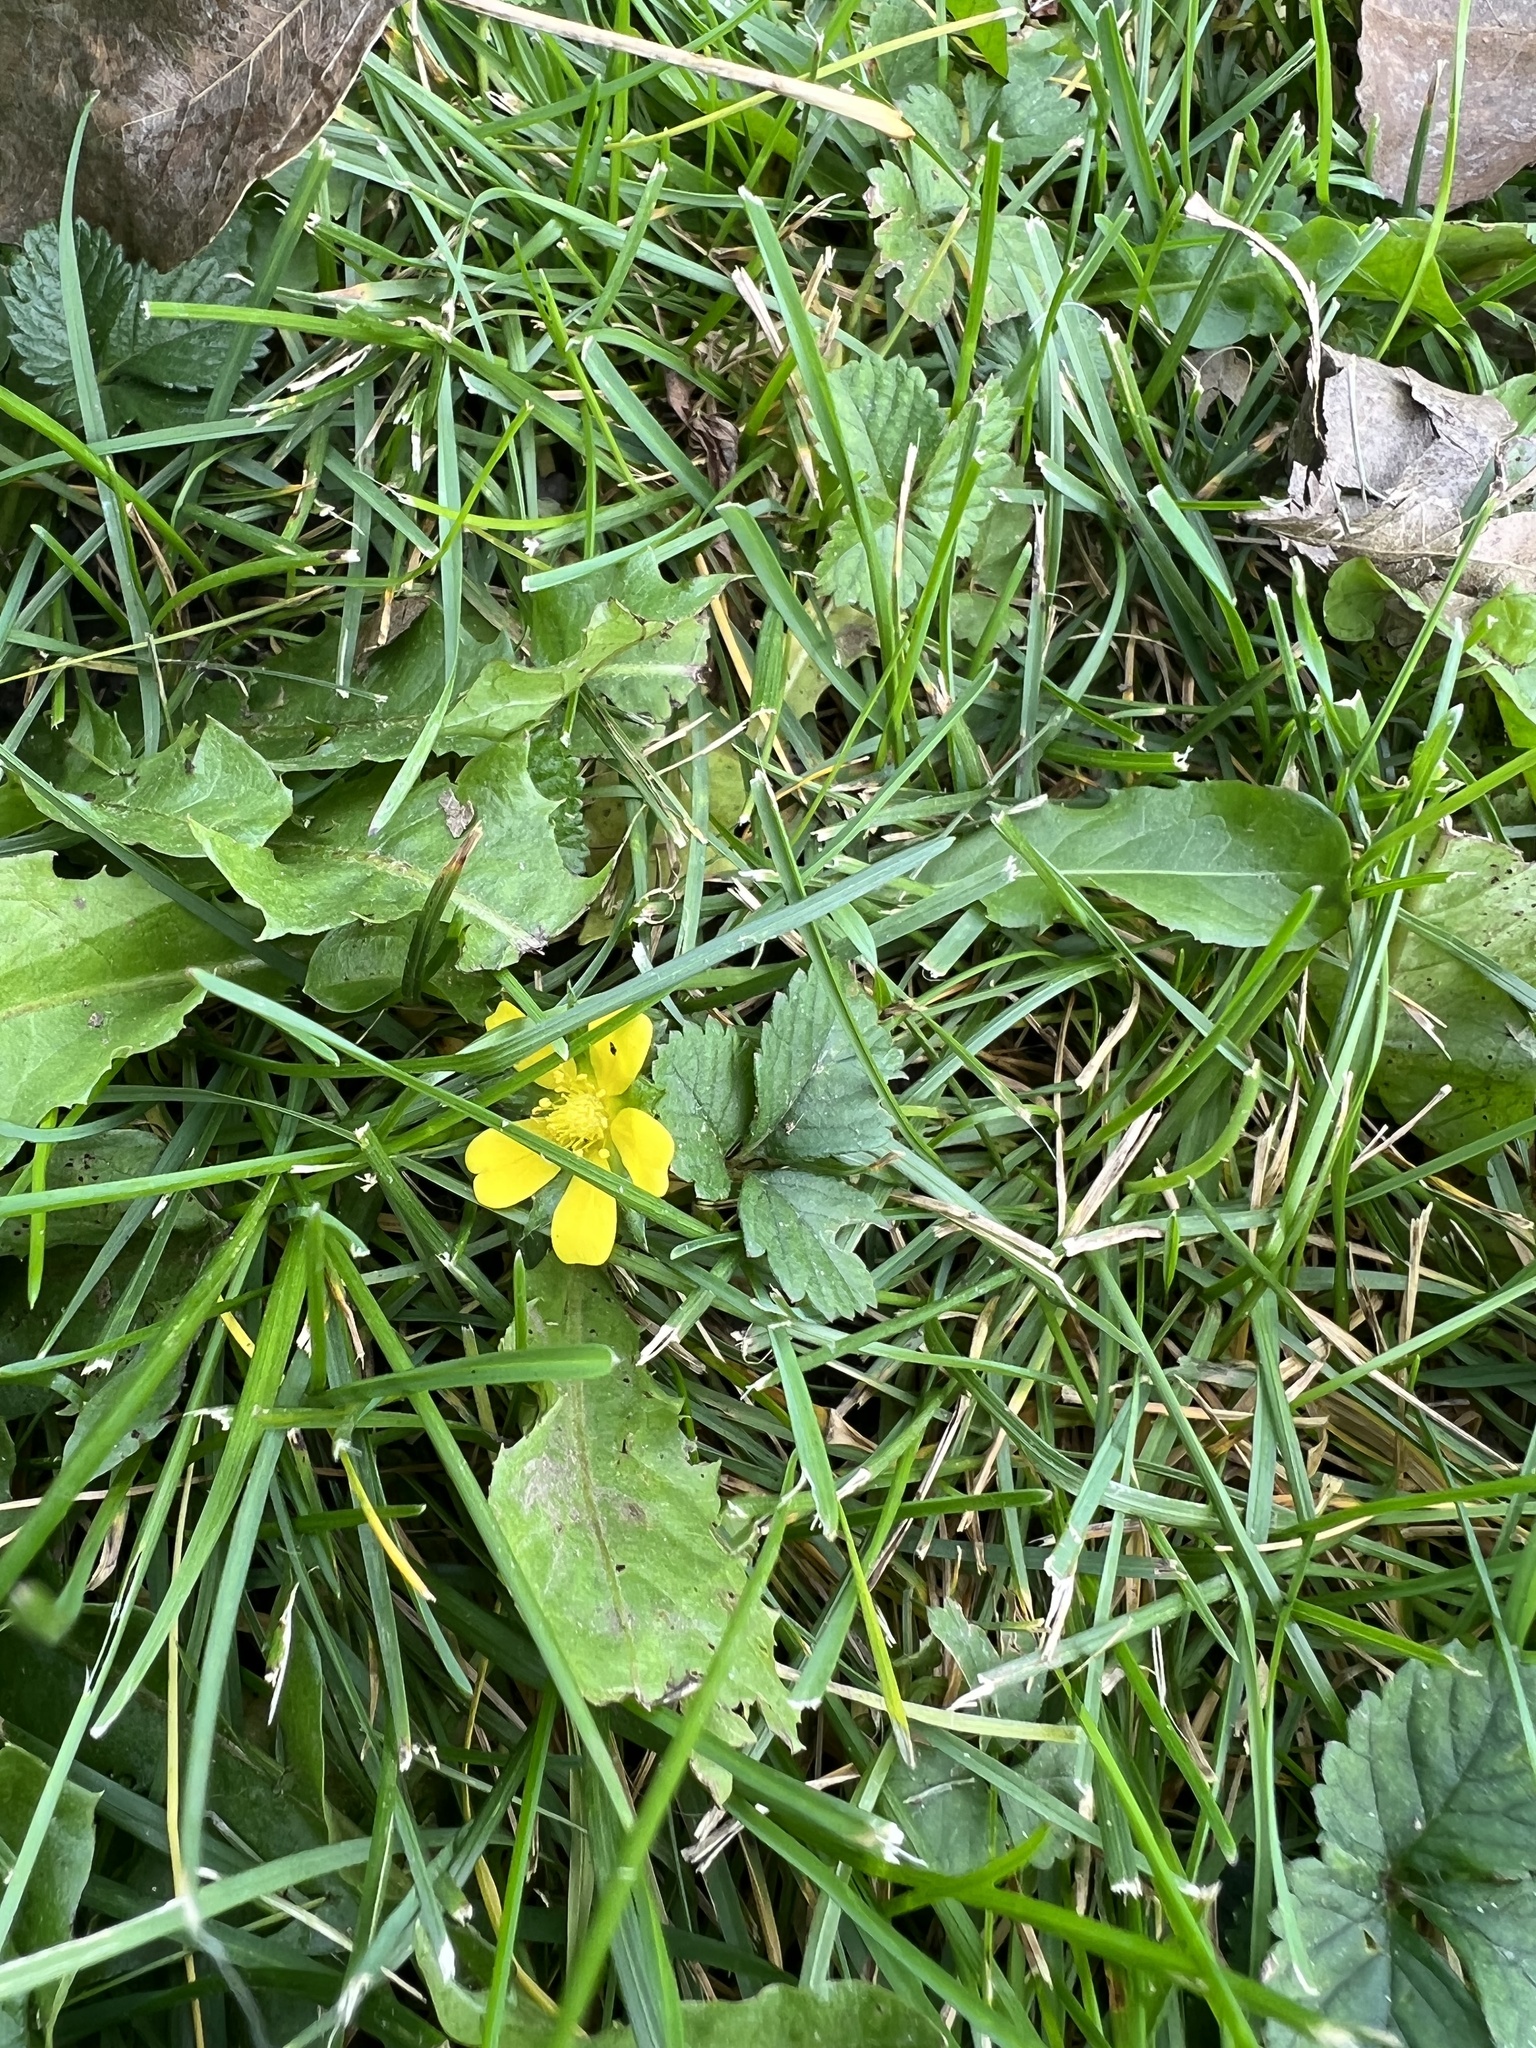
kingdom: Plantae
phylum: Tracheophyta
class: Magnoliopsida
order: Rosales
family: Rosaceae
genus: Potentilla
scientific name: Potentilla indica
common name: Yellow-flowered strawberry
